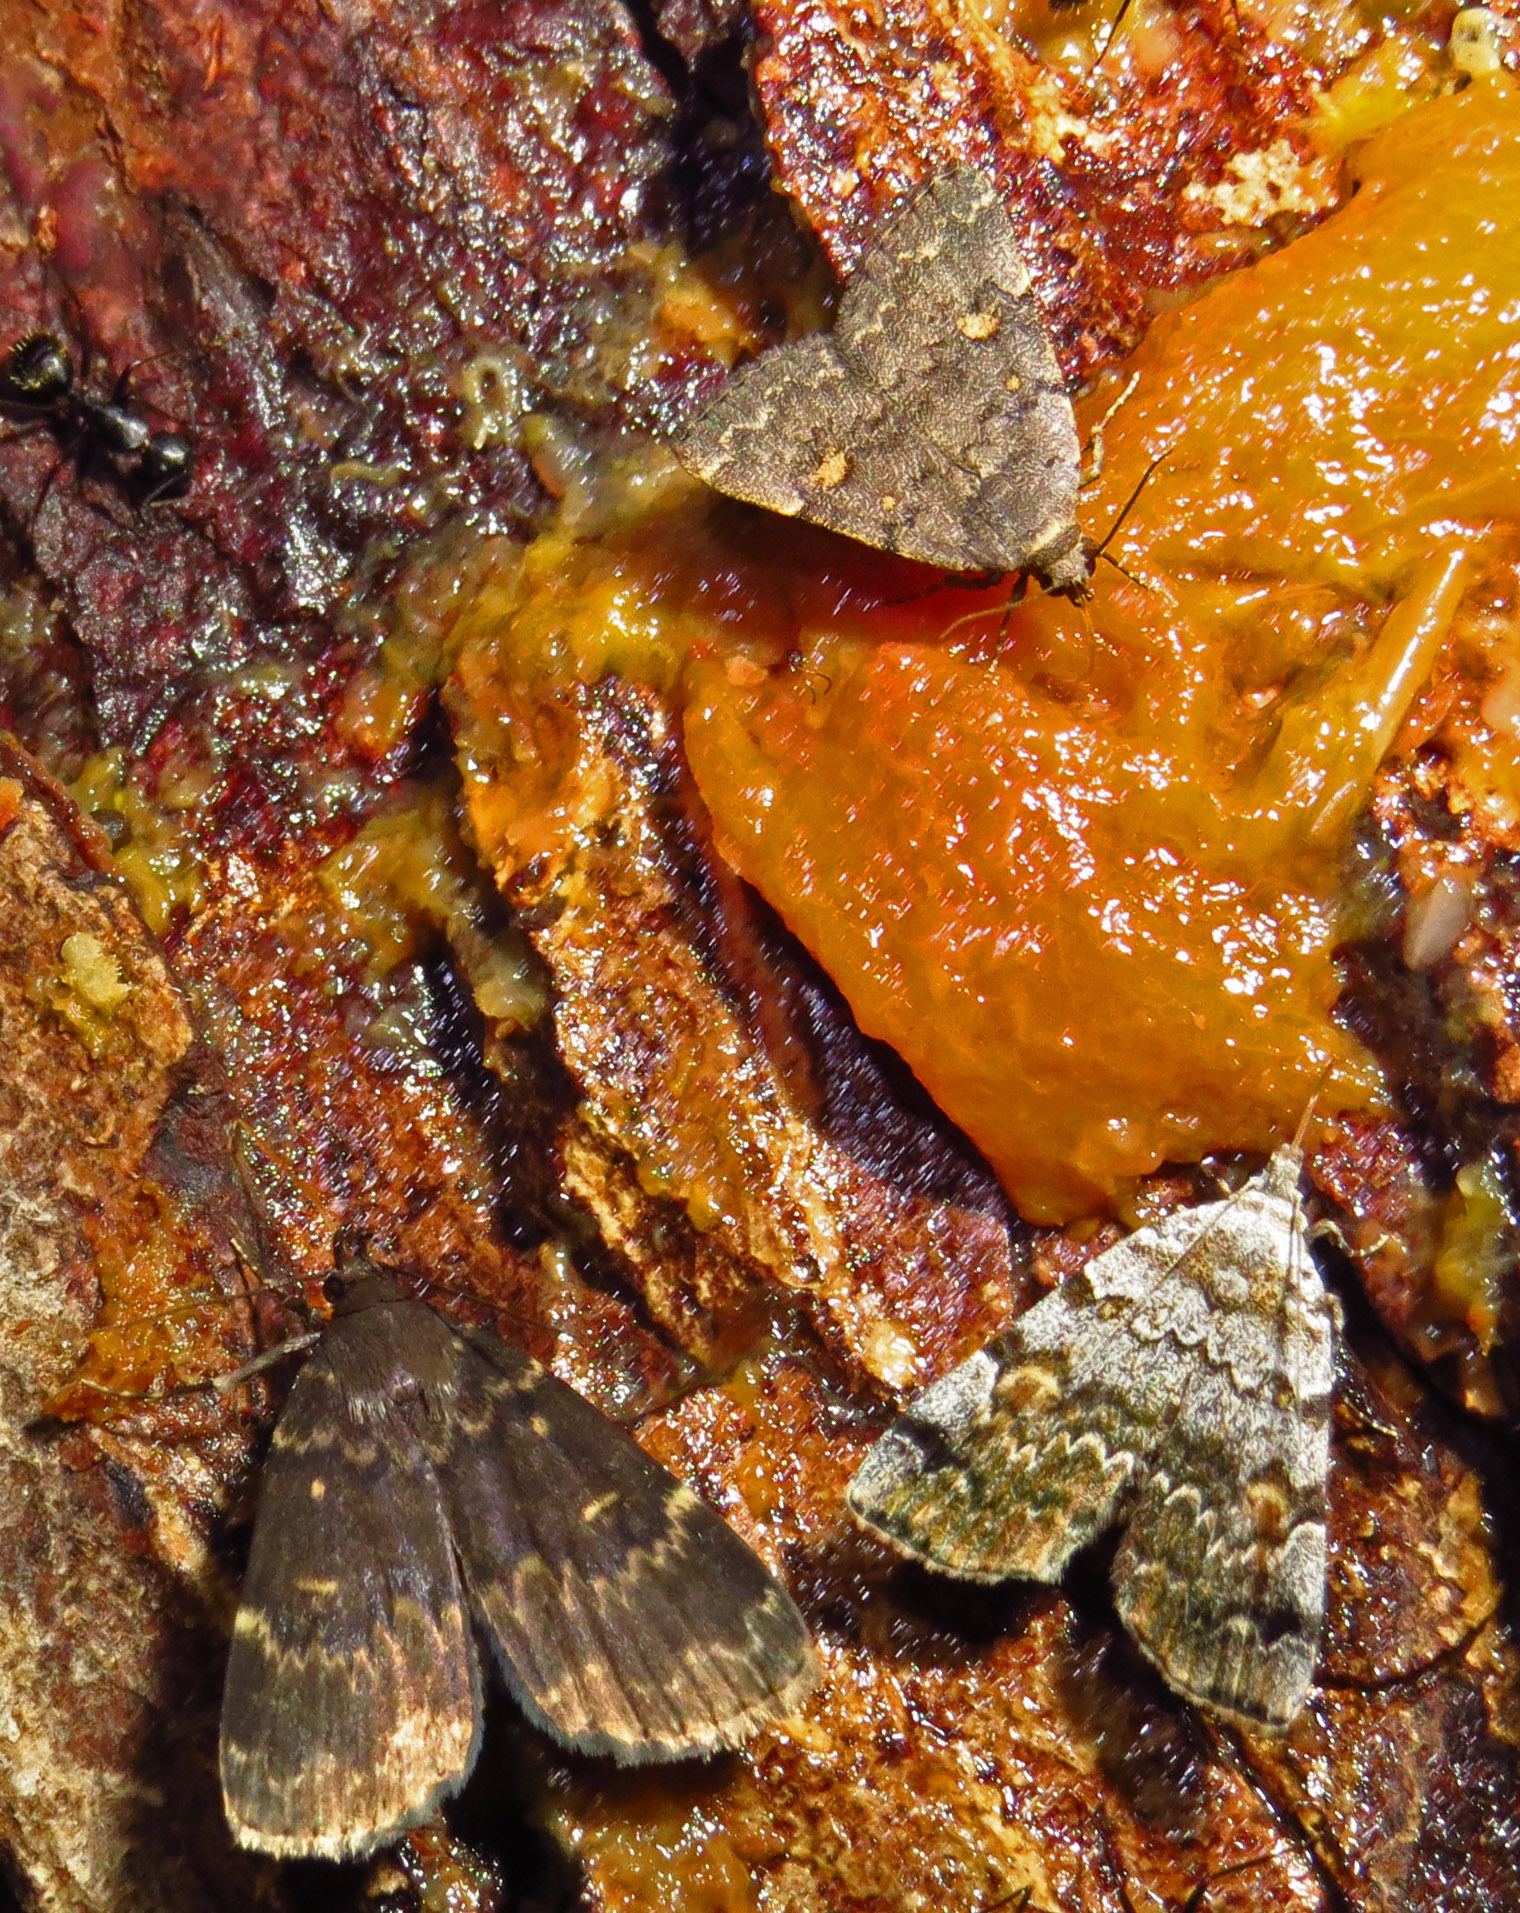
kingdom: Animalia
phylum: Arthropoda
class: Insecta
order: Lepidoptera
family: Erebidae
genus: Idia
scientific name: Idia lubricalis
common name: Twin-striped tabby
